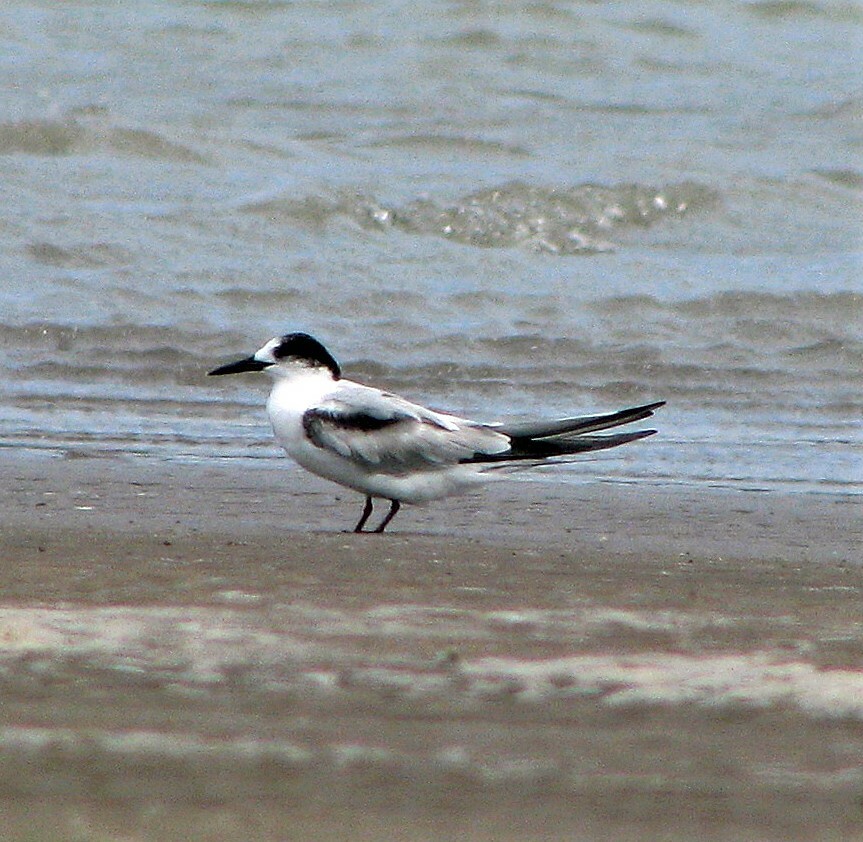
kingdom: Animalia
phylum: Chordata
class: Aves
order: Charadriiformes
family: Laridae
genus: Sterna
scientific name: Sterna hirundo
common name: Common tern
